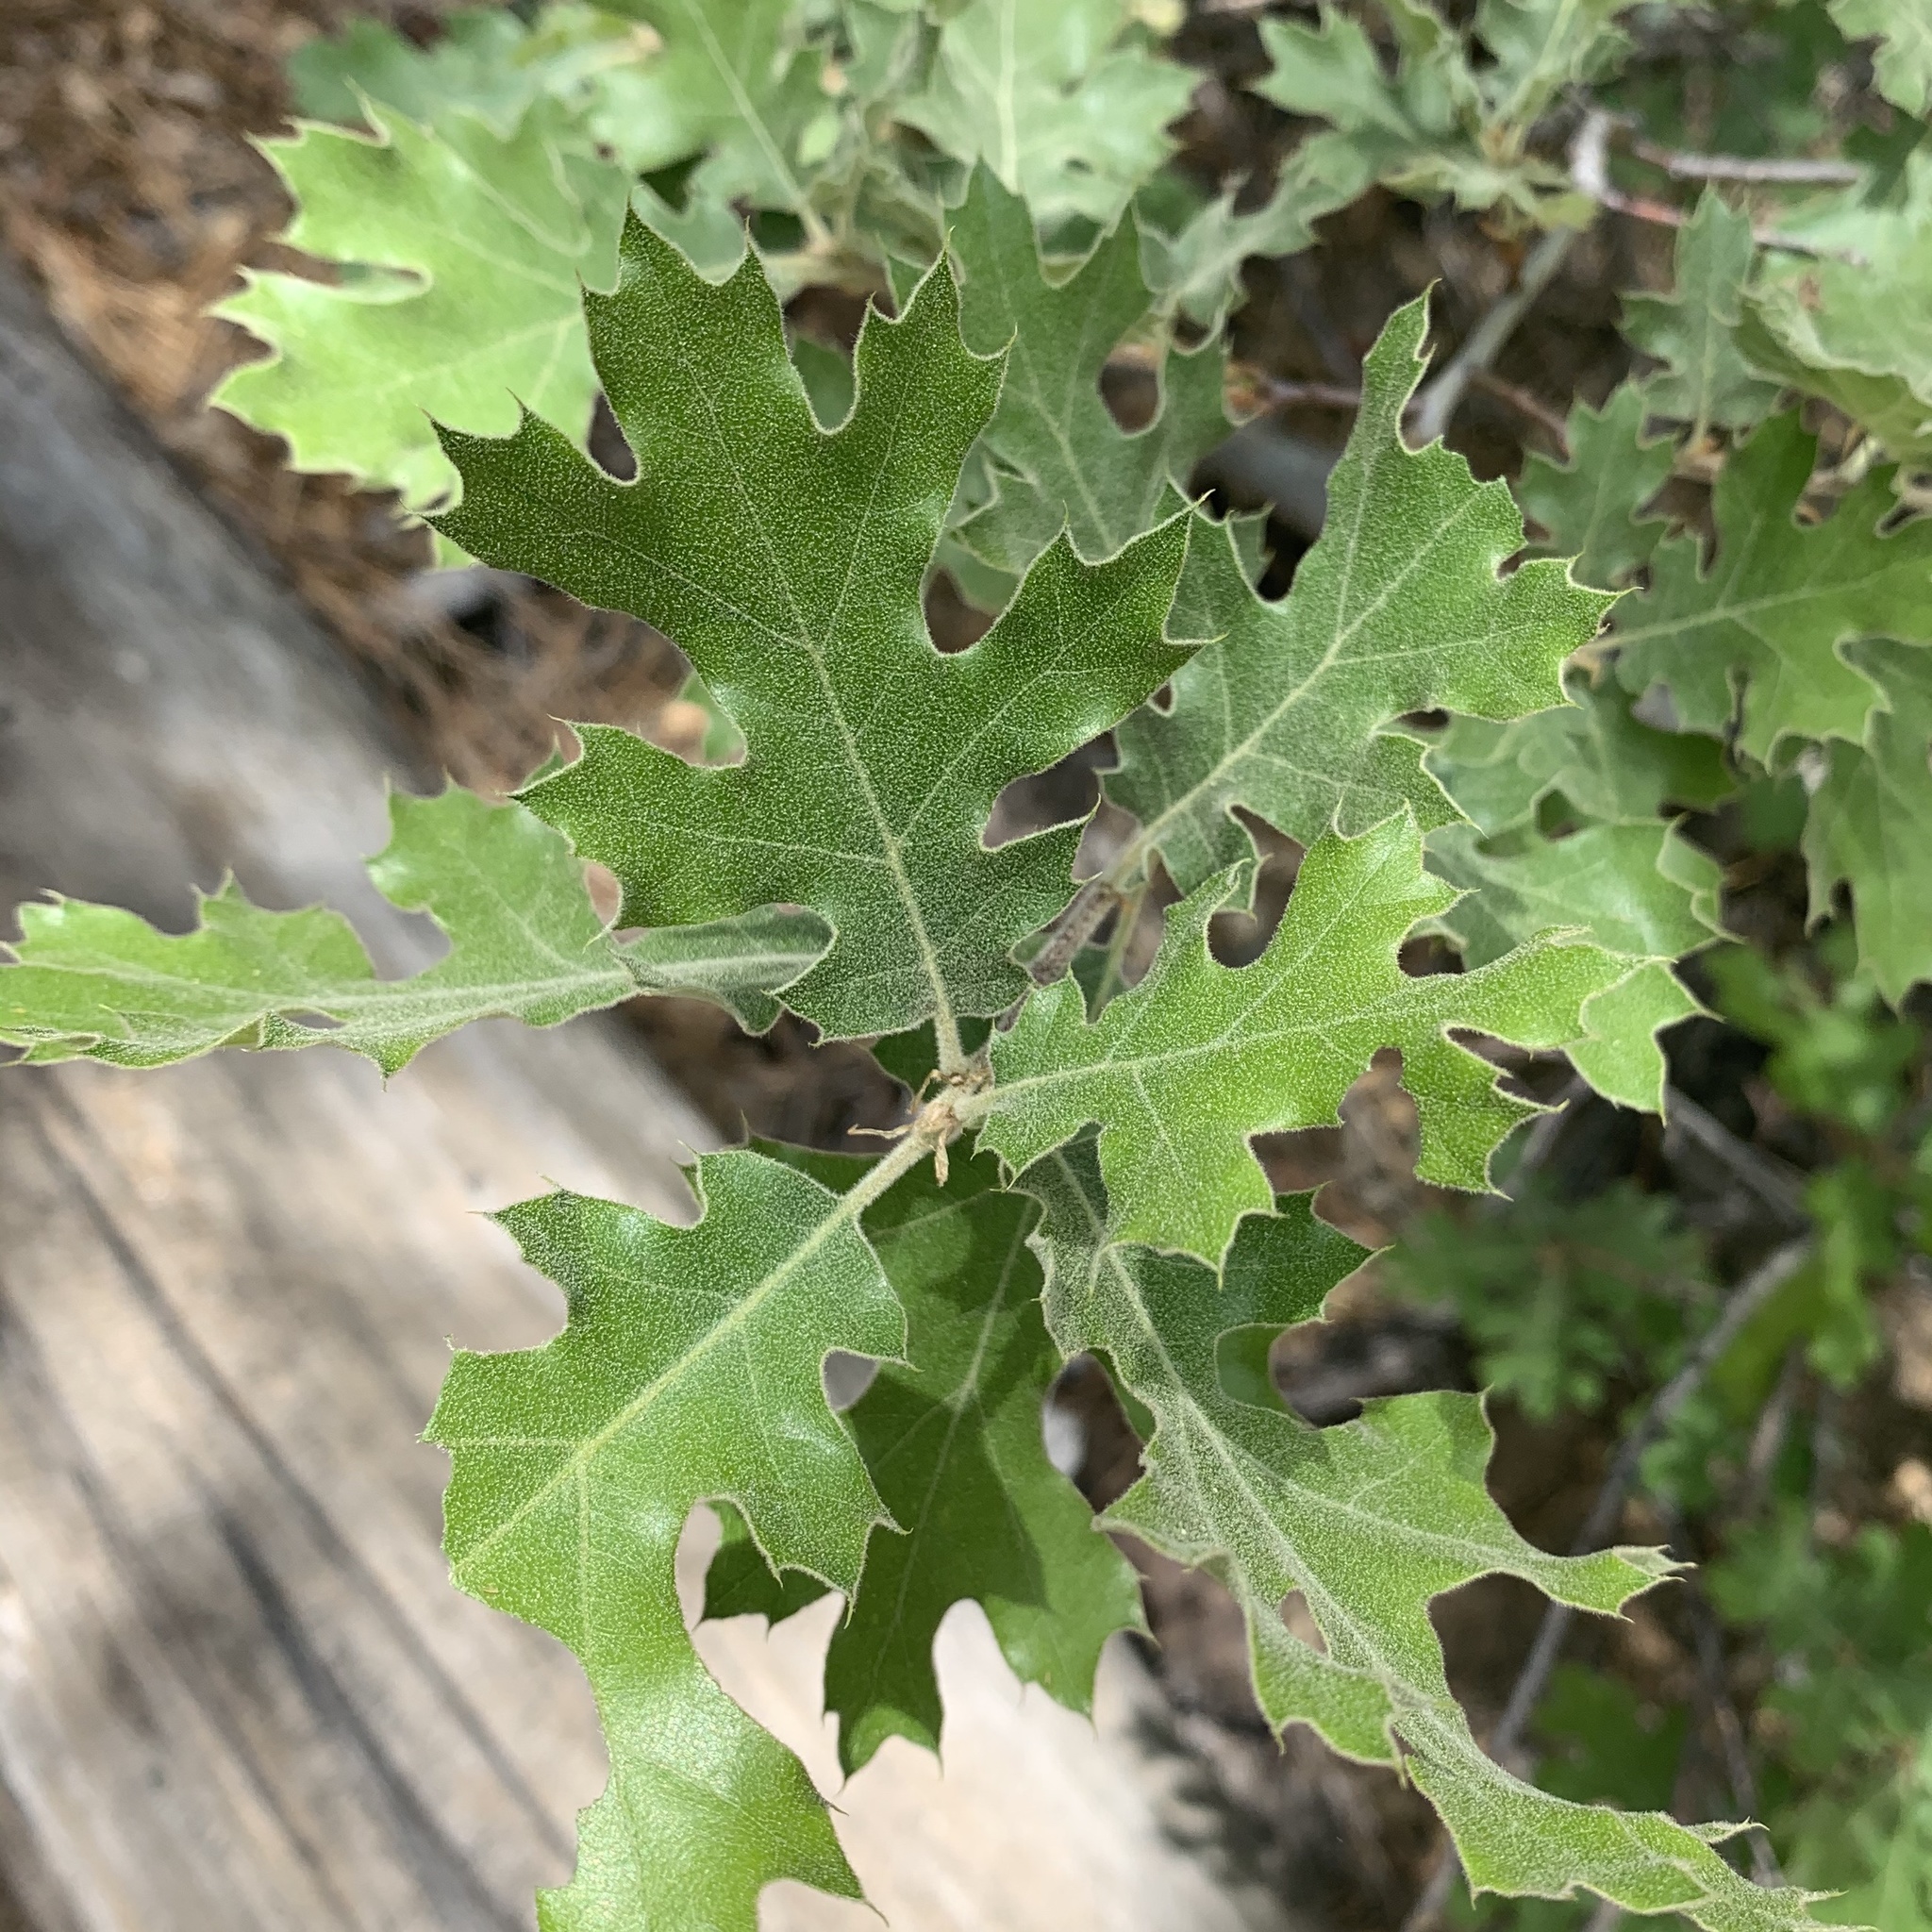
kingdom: Plantae
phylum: Tracheophyta
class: Magnoliopsida
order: Fagales
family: Fagaceae
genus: Quercus
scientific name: Quercus kelloggii
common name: California black oak
